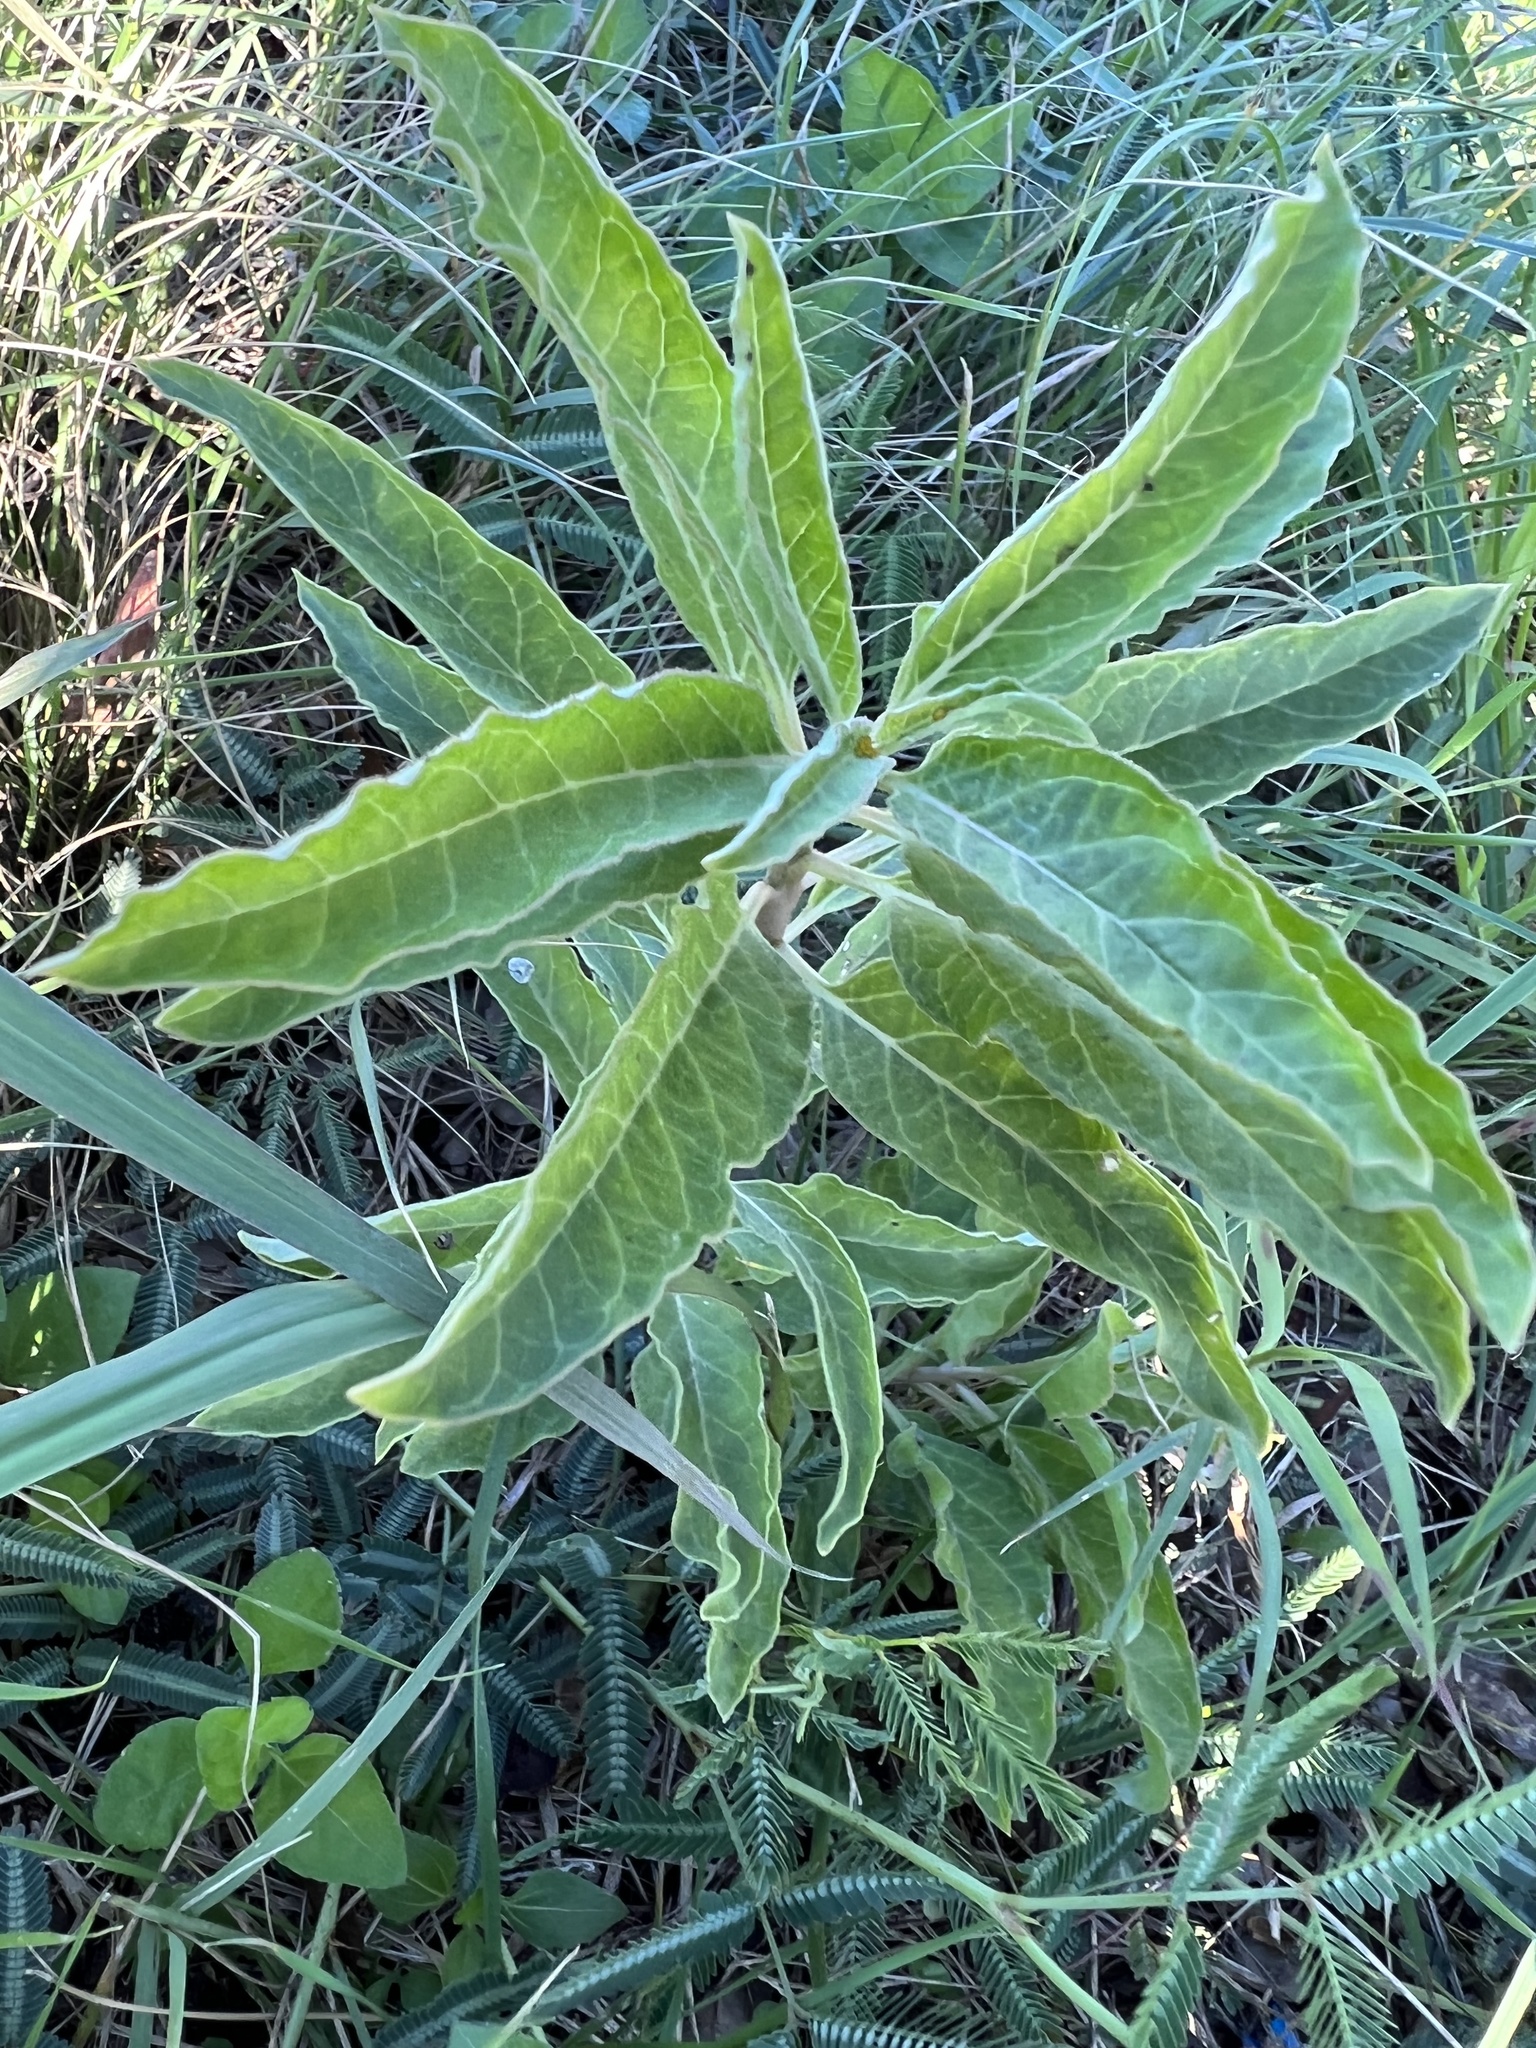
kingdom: Plantae
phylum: Tracheophyta
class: Magnoliopsida
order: Gentianales
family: Apocynaceae
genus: Asclepias
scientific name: Asclepias oenotheroides
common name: Zizotes milkweed
